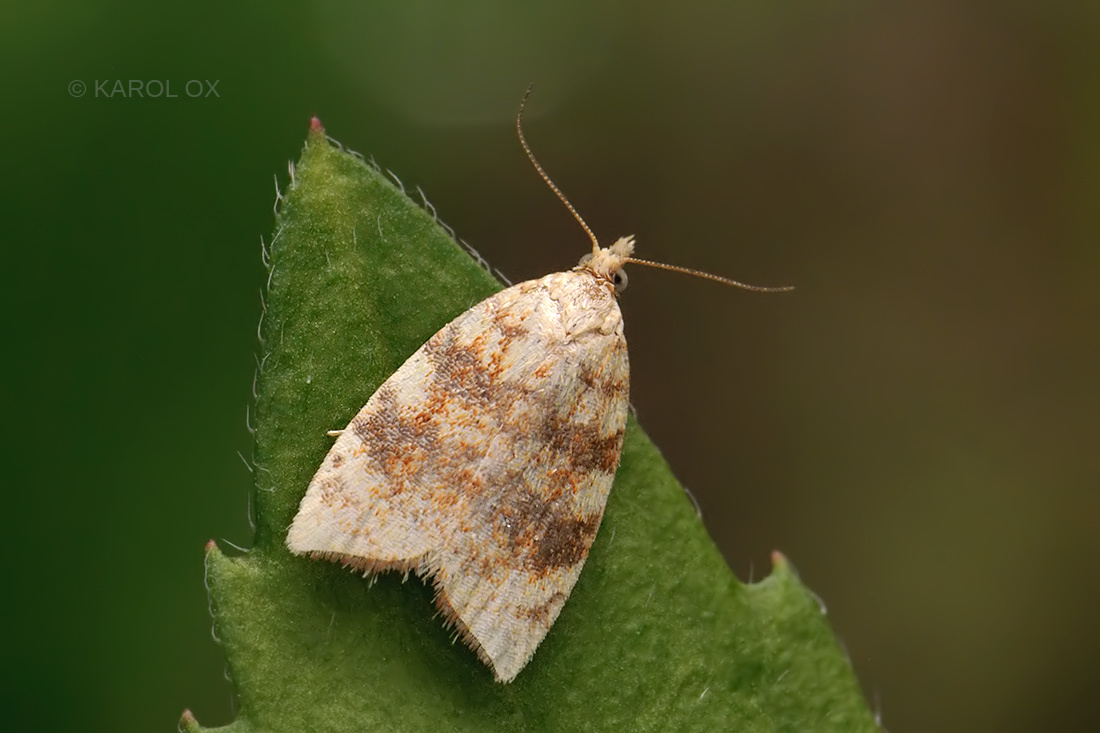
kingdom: Animalia
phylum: Arthropoda
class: Insecta
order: Lepidoptera
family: Tortricidae
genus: Aleimma
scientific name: Aleimma loeflingiana
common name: Yellow oak button
